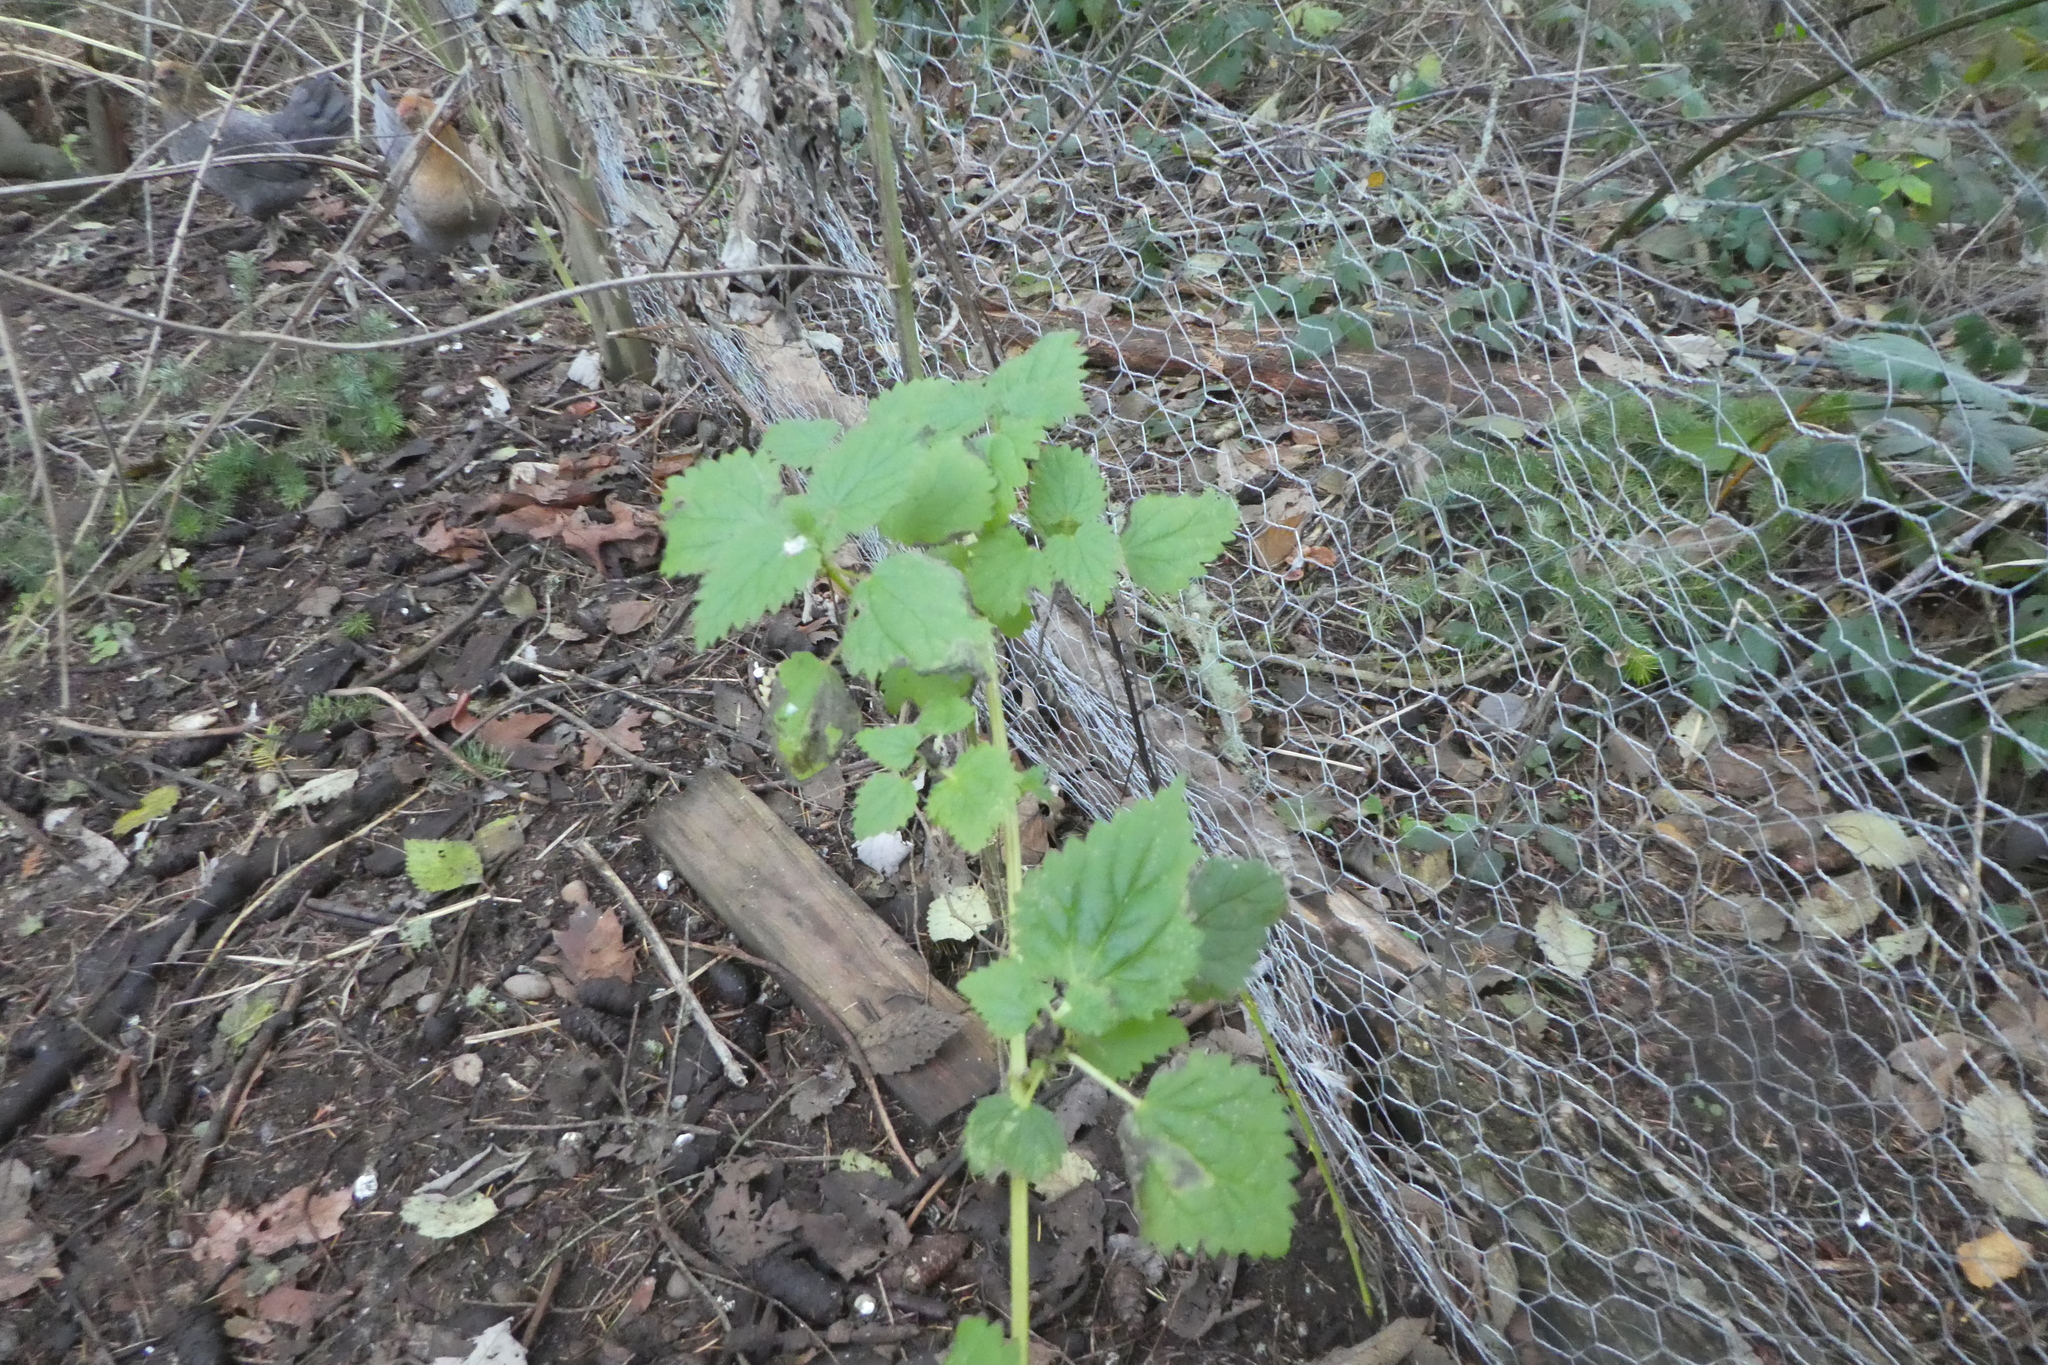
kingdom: Plantae
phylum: Tracheophyta
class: Magnoliopsida
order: Rosales
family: Urticaceae
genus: Urtica
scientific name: Urtica gracilis
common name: Slender stinging nettle
